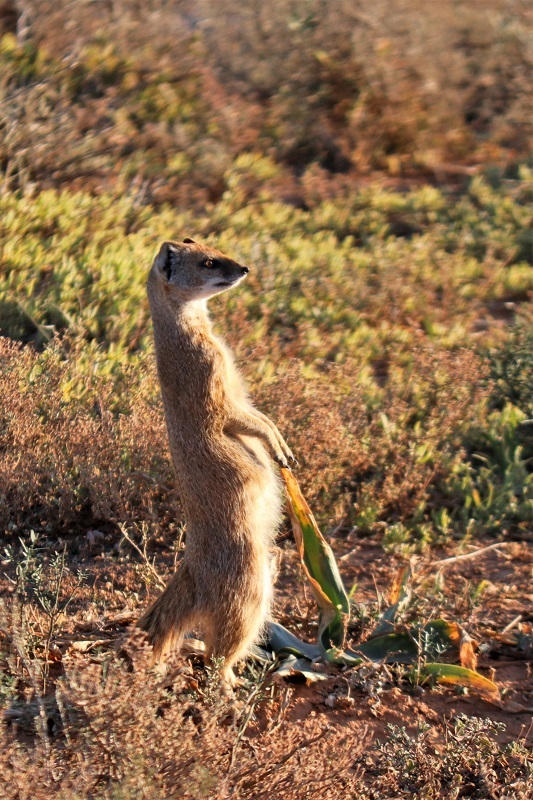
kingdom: Animalia
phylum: Chordata
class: Mammalia
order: Carnivora
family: Herpestidae
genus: Cynictis
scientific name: Cynictis penicillata
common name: Yellow mongoose
